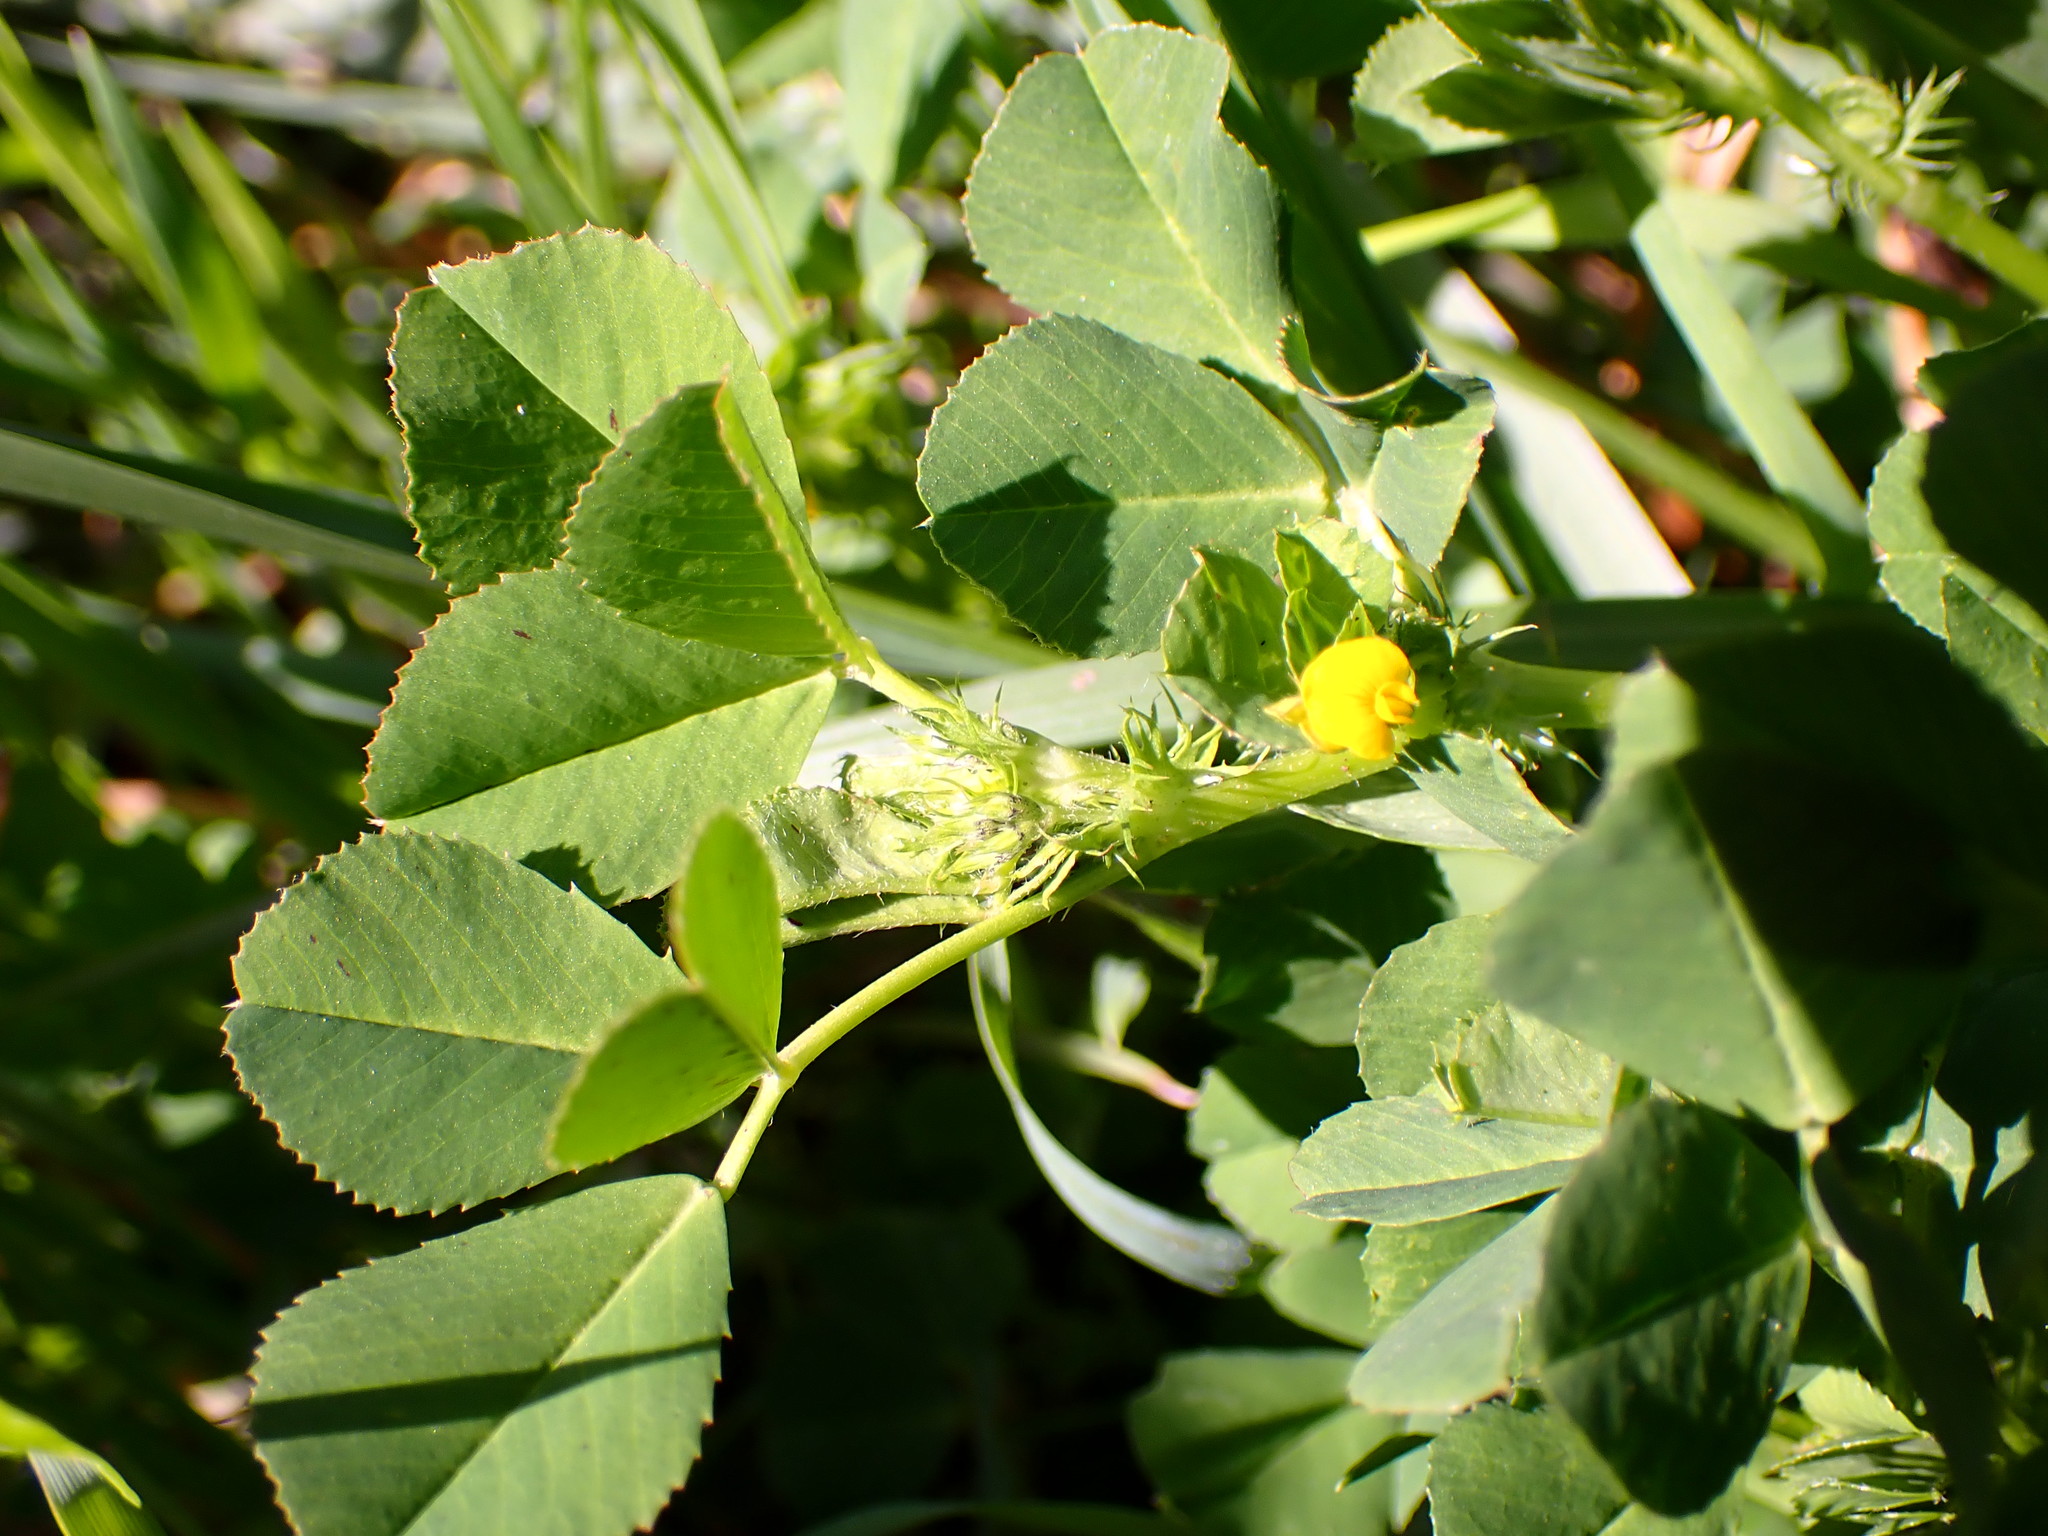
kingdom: Plantae
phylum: Tracheophyta
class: Magnoliopsida
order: Fabales
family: Fabaceae
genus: Medicago
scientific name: Medicago polymorpha
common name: Burclover
